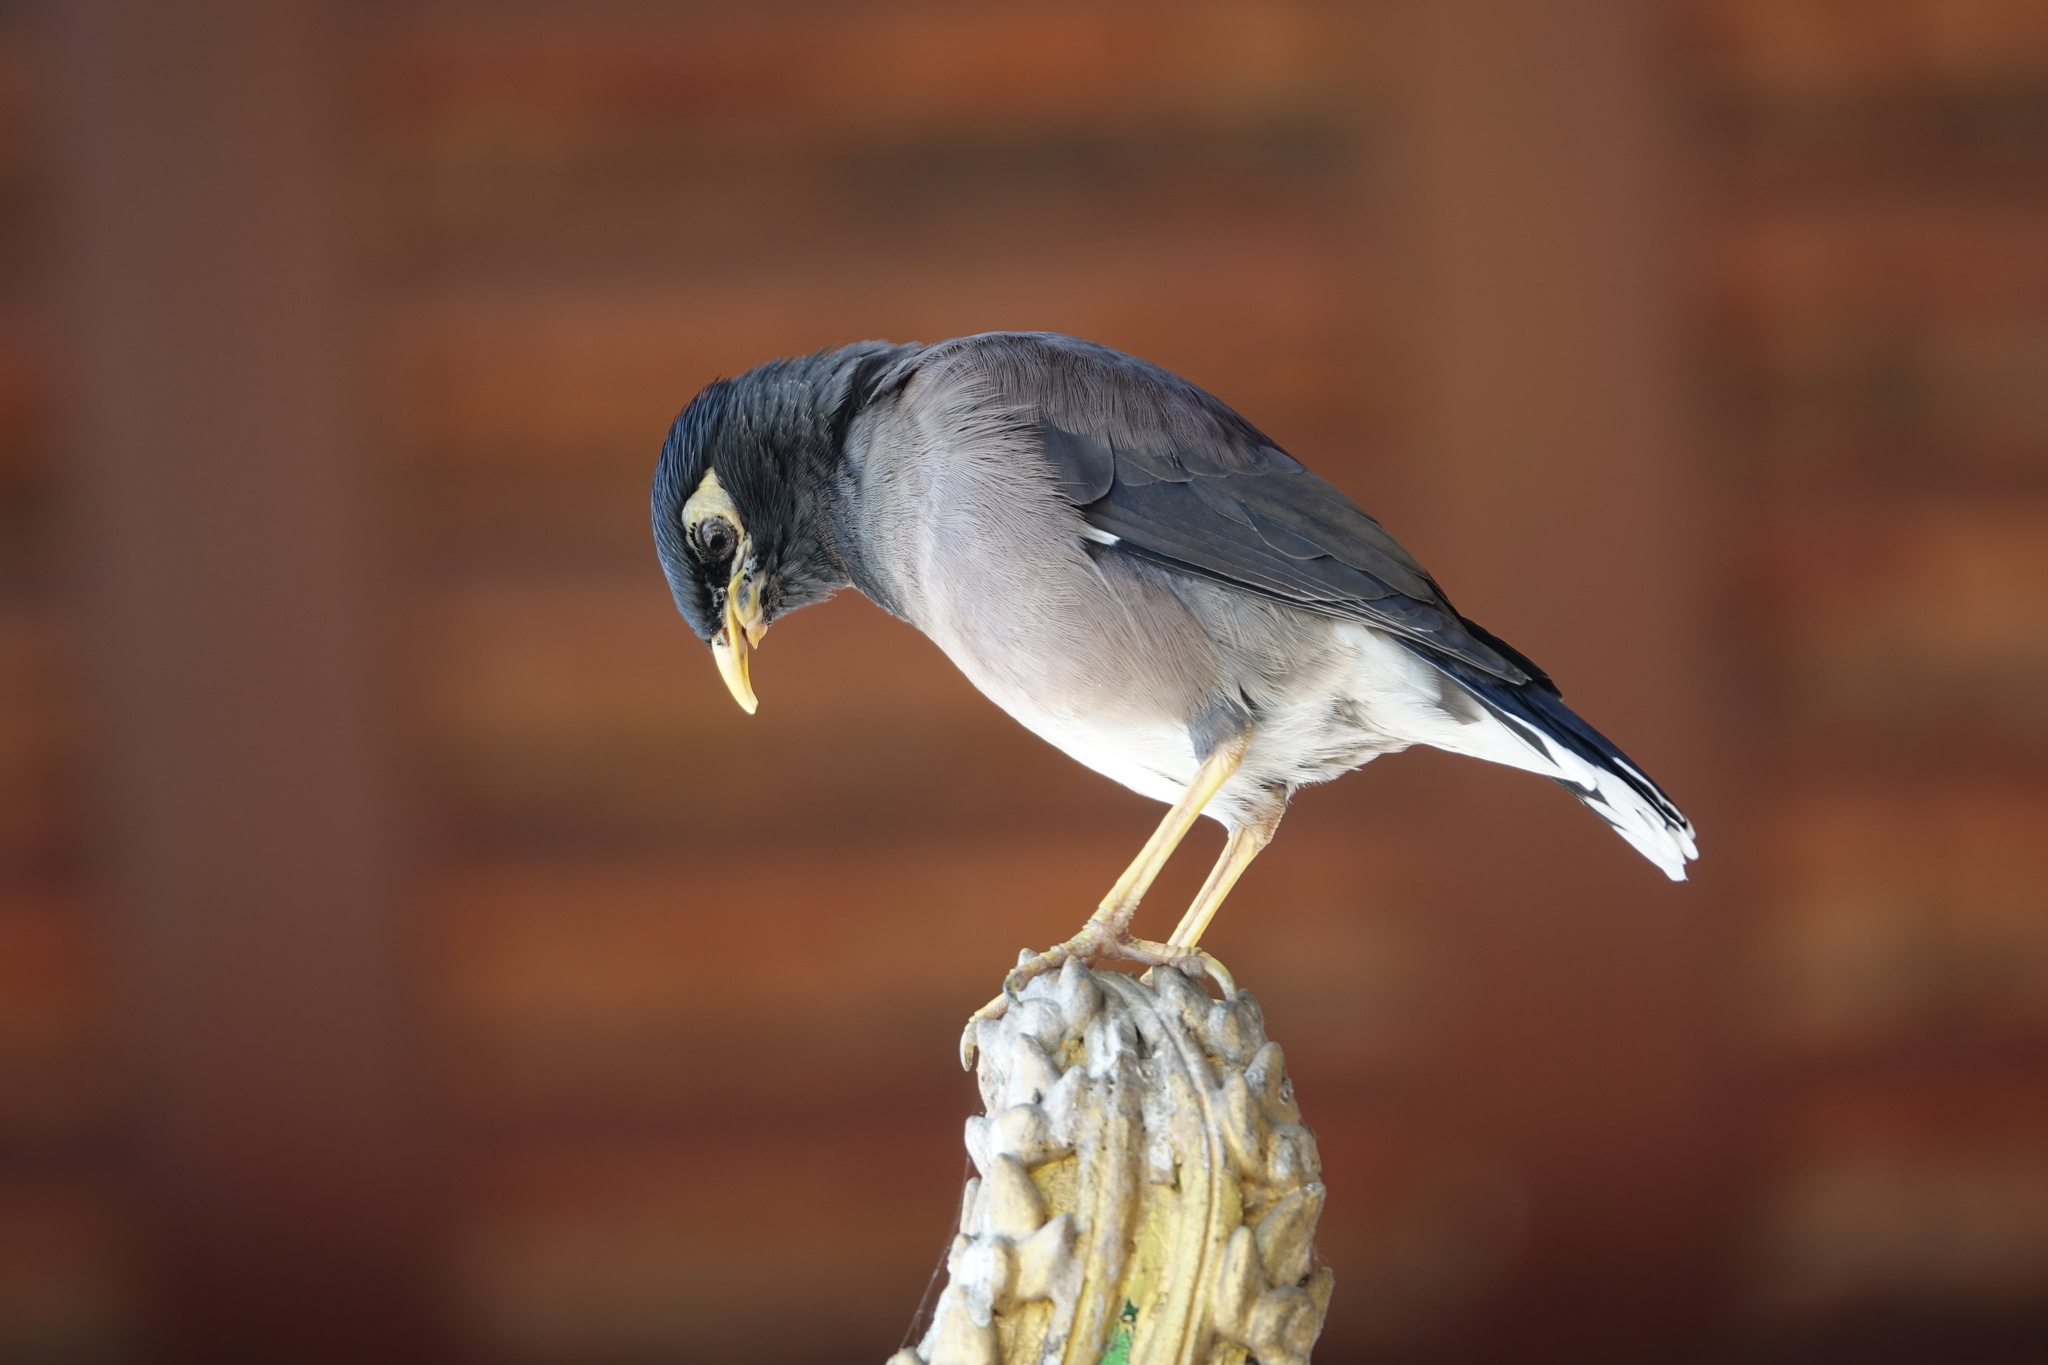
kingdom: Animalia
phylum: Chordata
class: Aves
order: Passeriformes
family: Sturnidae
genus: Acridotheres
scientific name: Acridotheres tristis
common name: Common myna
